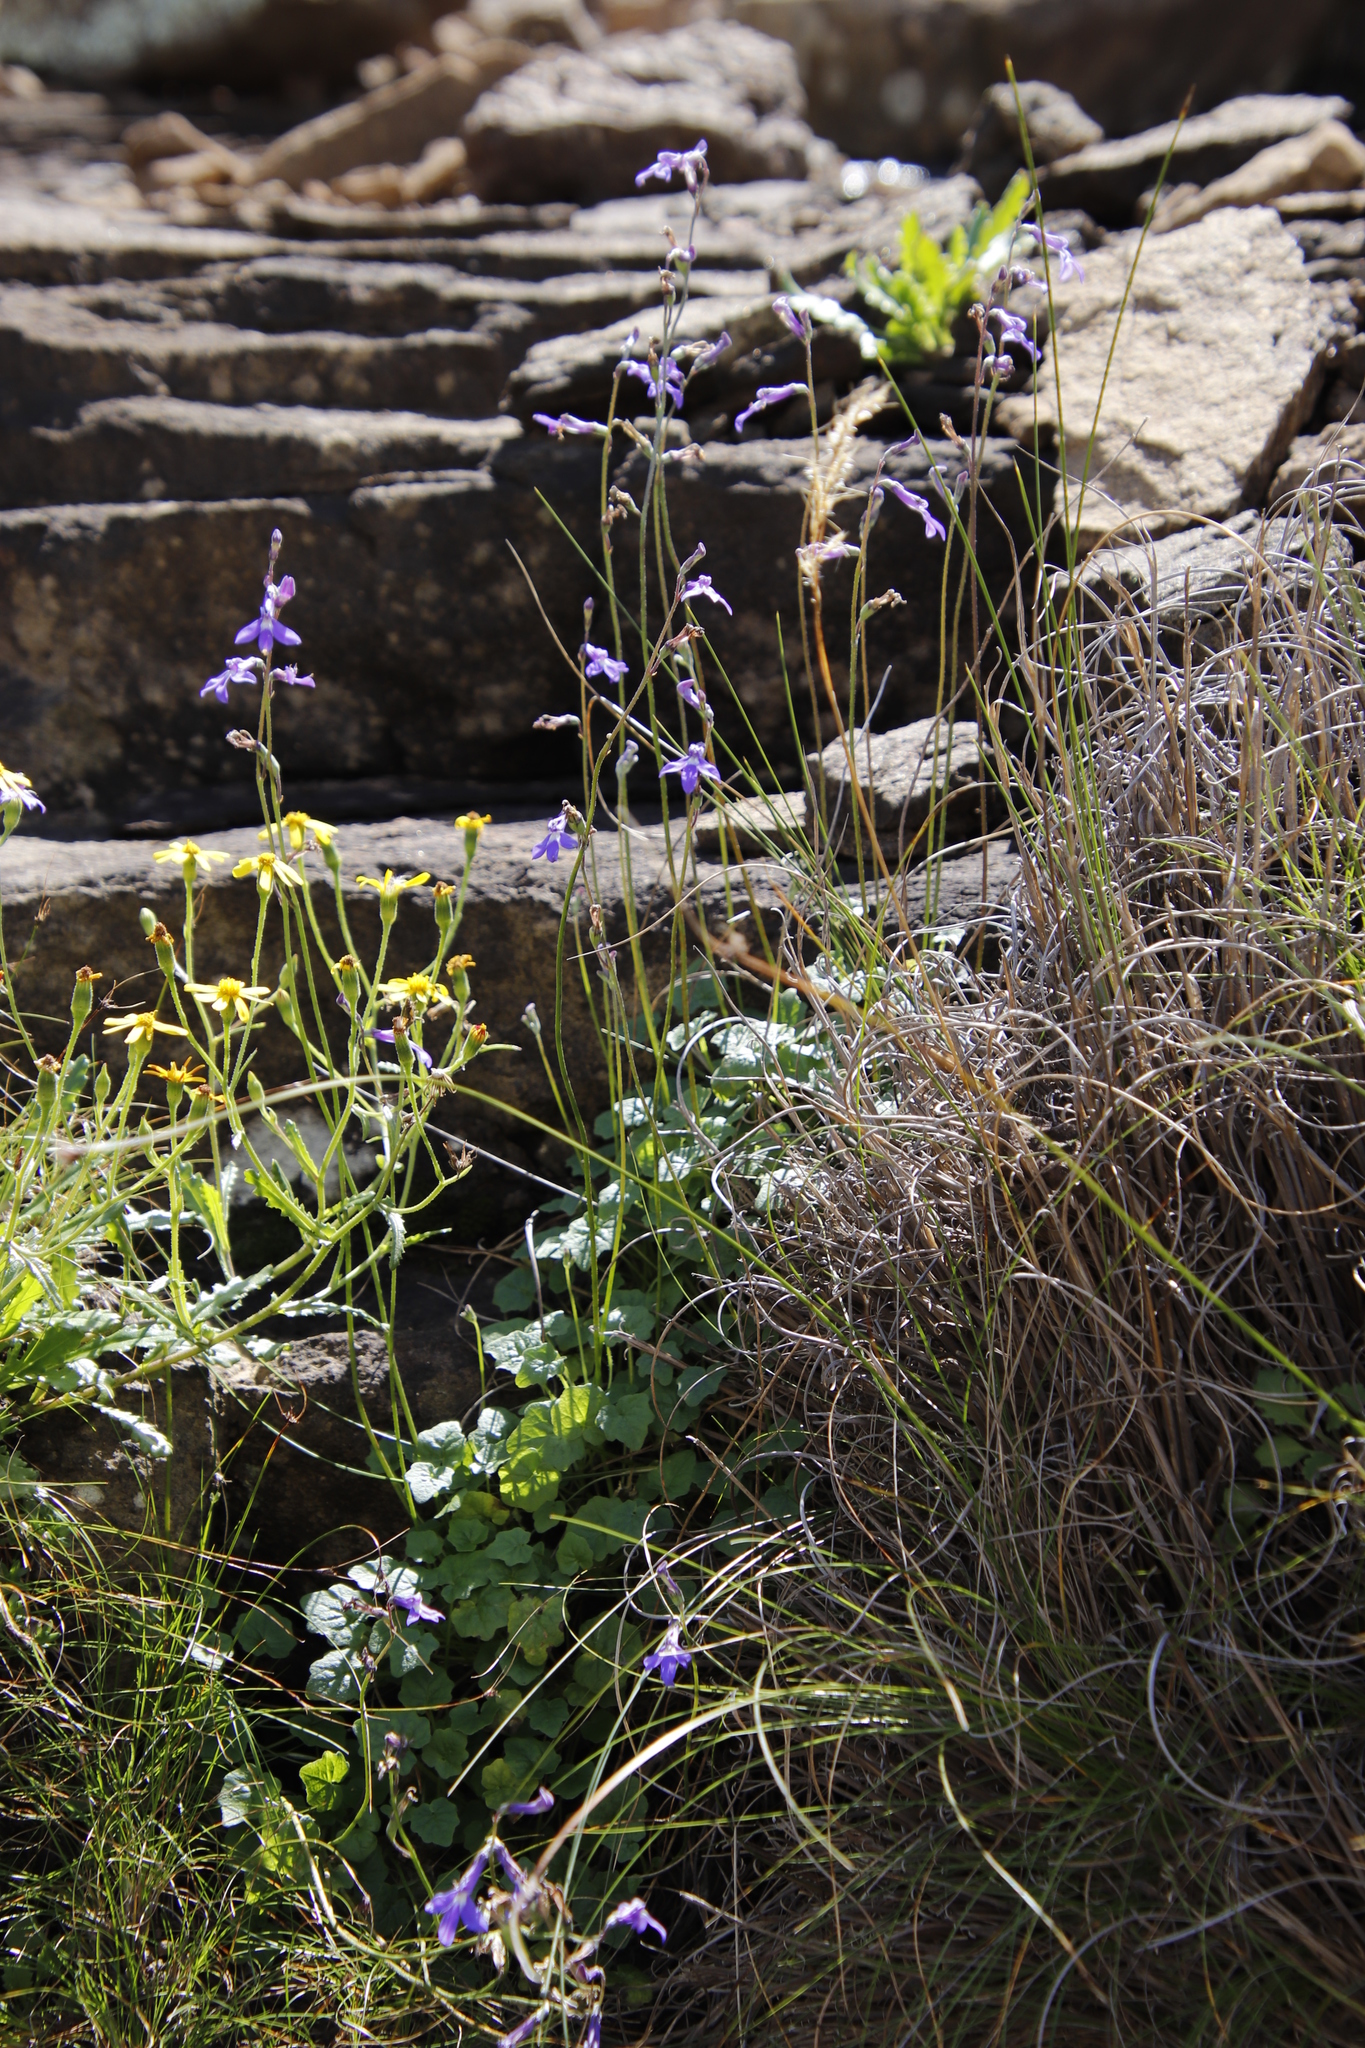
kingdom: Plantae
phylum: Tracheophyta
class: Magnoliopsida
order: Asterales
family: Campanulaceae
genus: Lobelia
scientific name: Lobelia preslii
